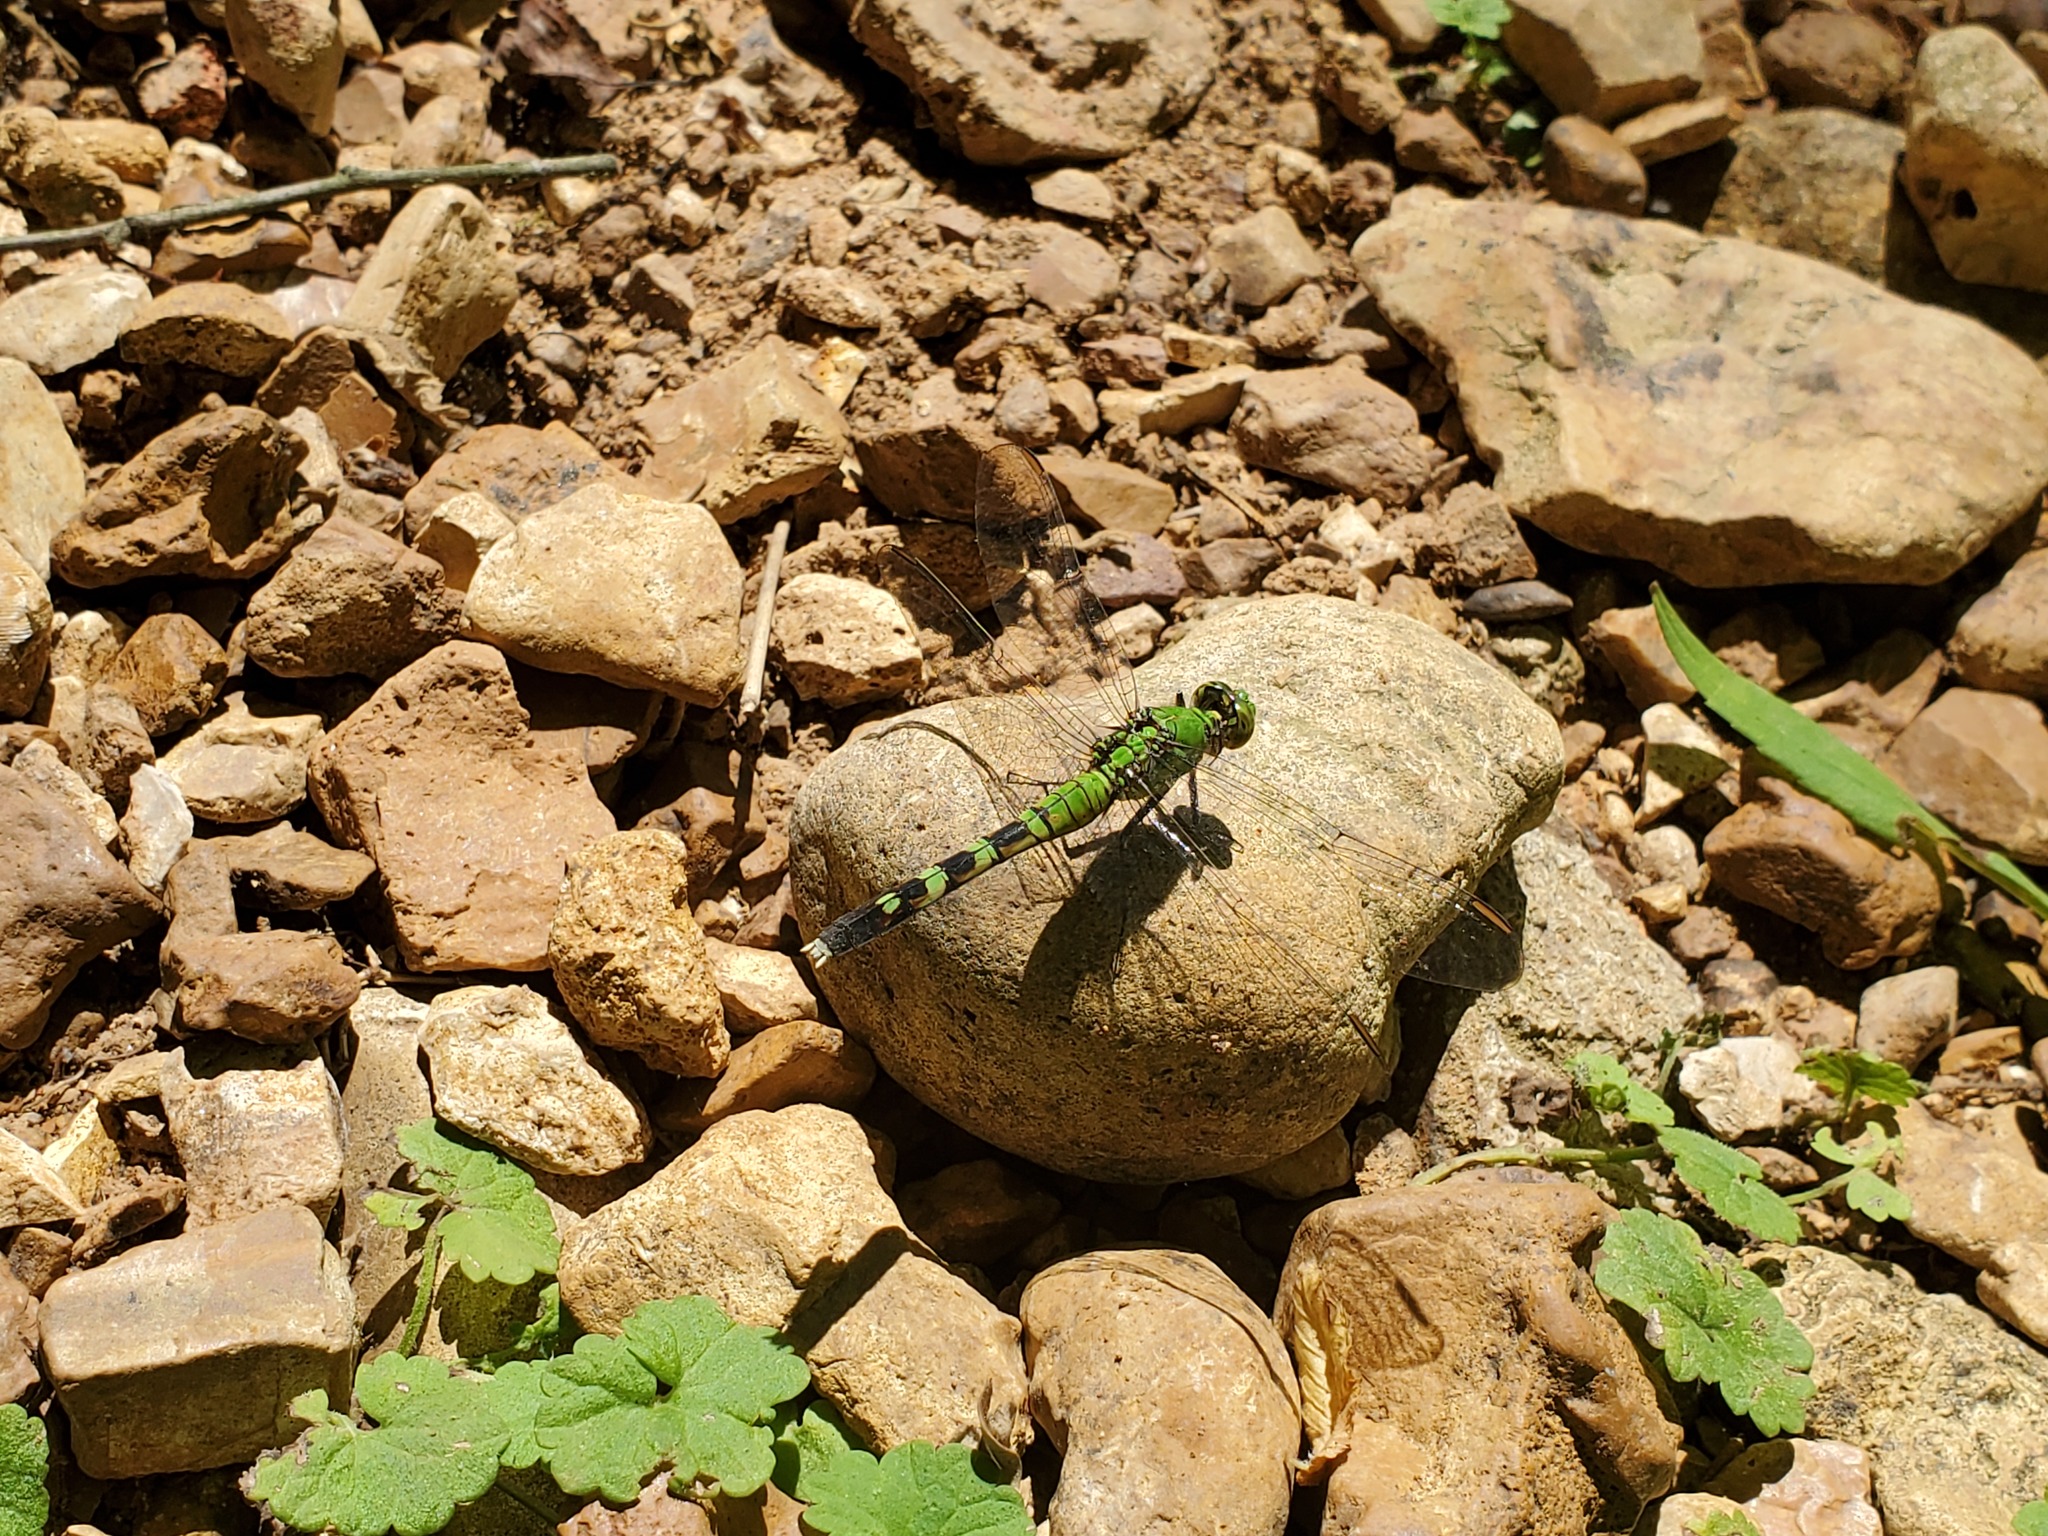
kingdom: Animalia
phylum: Arthropoda
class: Insecta
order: Odonata
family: Libellulidae
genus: Erythemis
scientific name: Erythemis simplicicollis
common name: Eastern pondhawk
